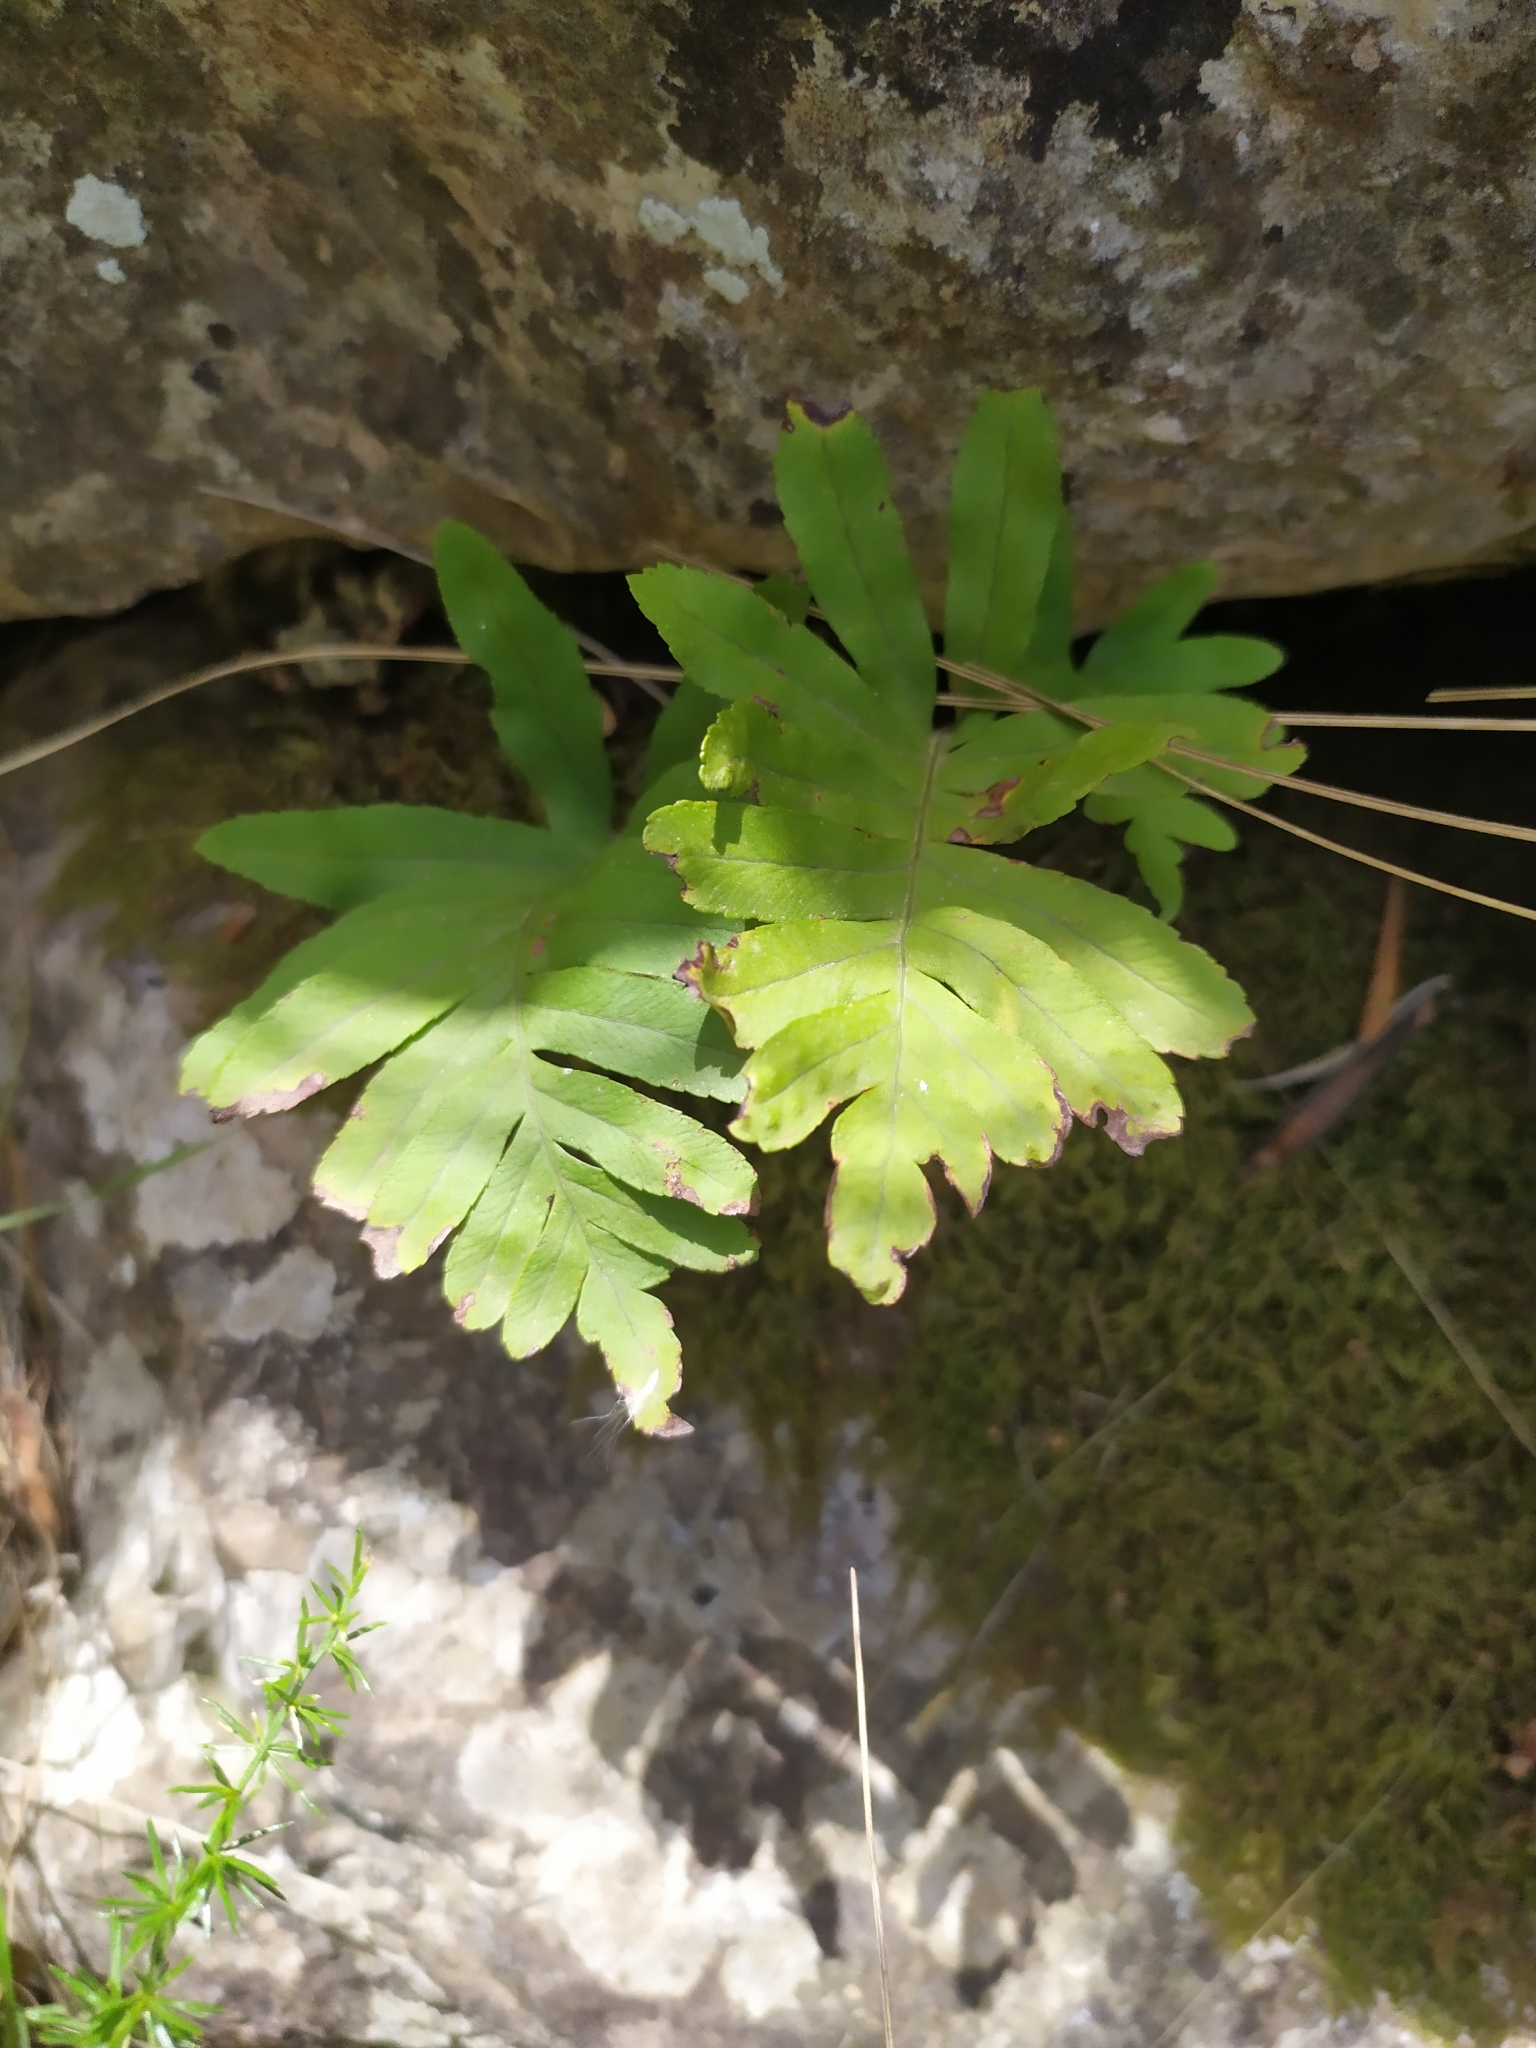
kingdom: Plantae
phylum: Tracheophyta
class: Polypodiopsida
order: Polypodiales
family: Polypodiaceae
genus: Polypodium
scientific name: Polypodium cambricum
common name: Southern polypody
